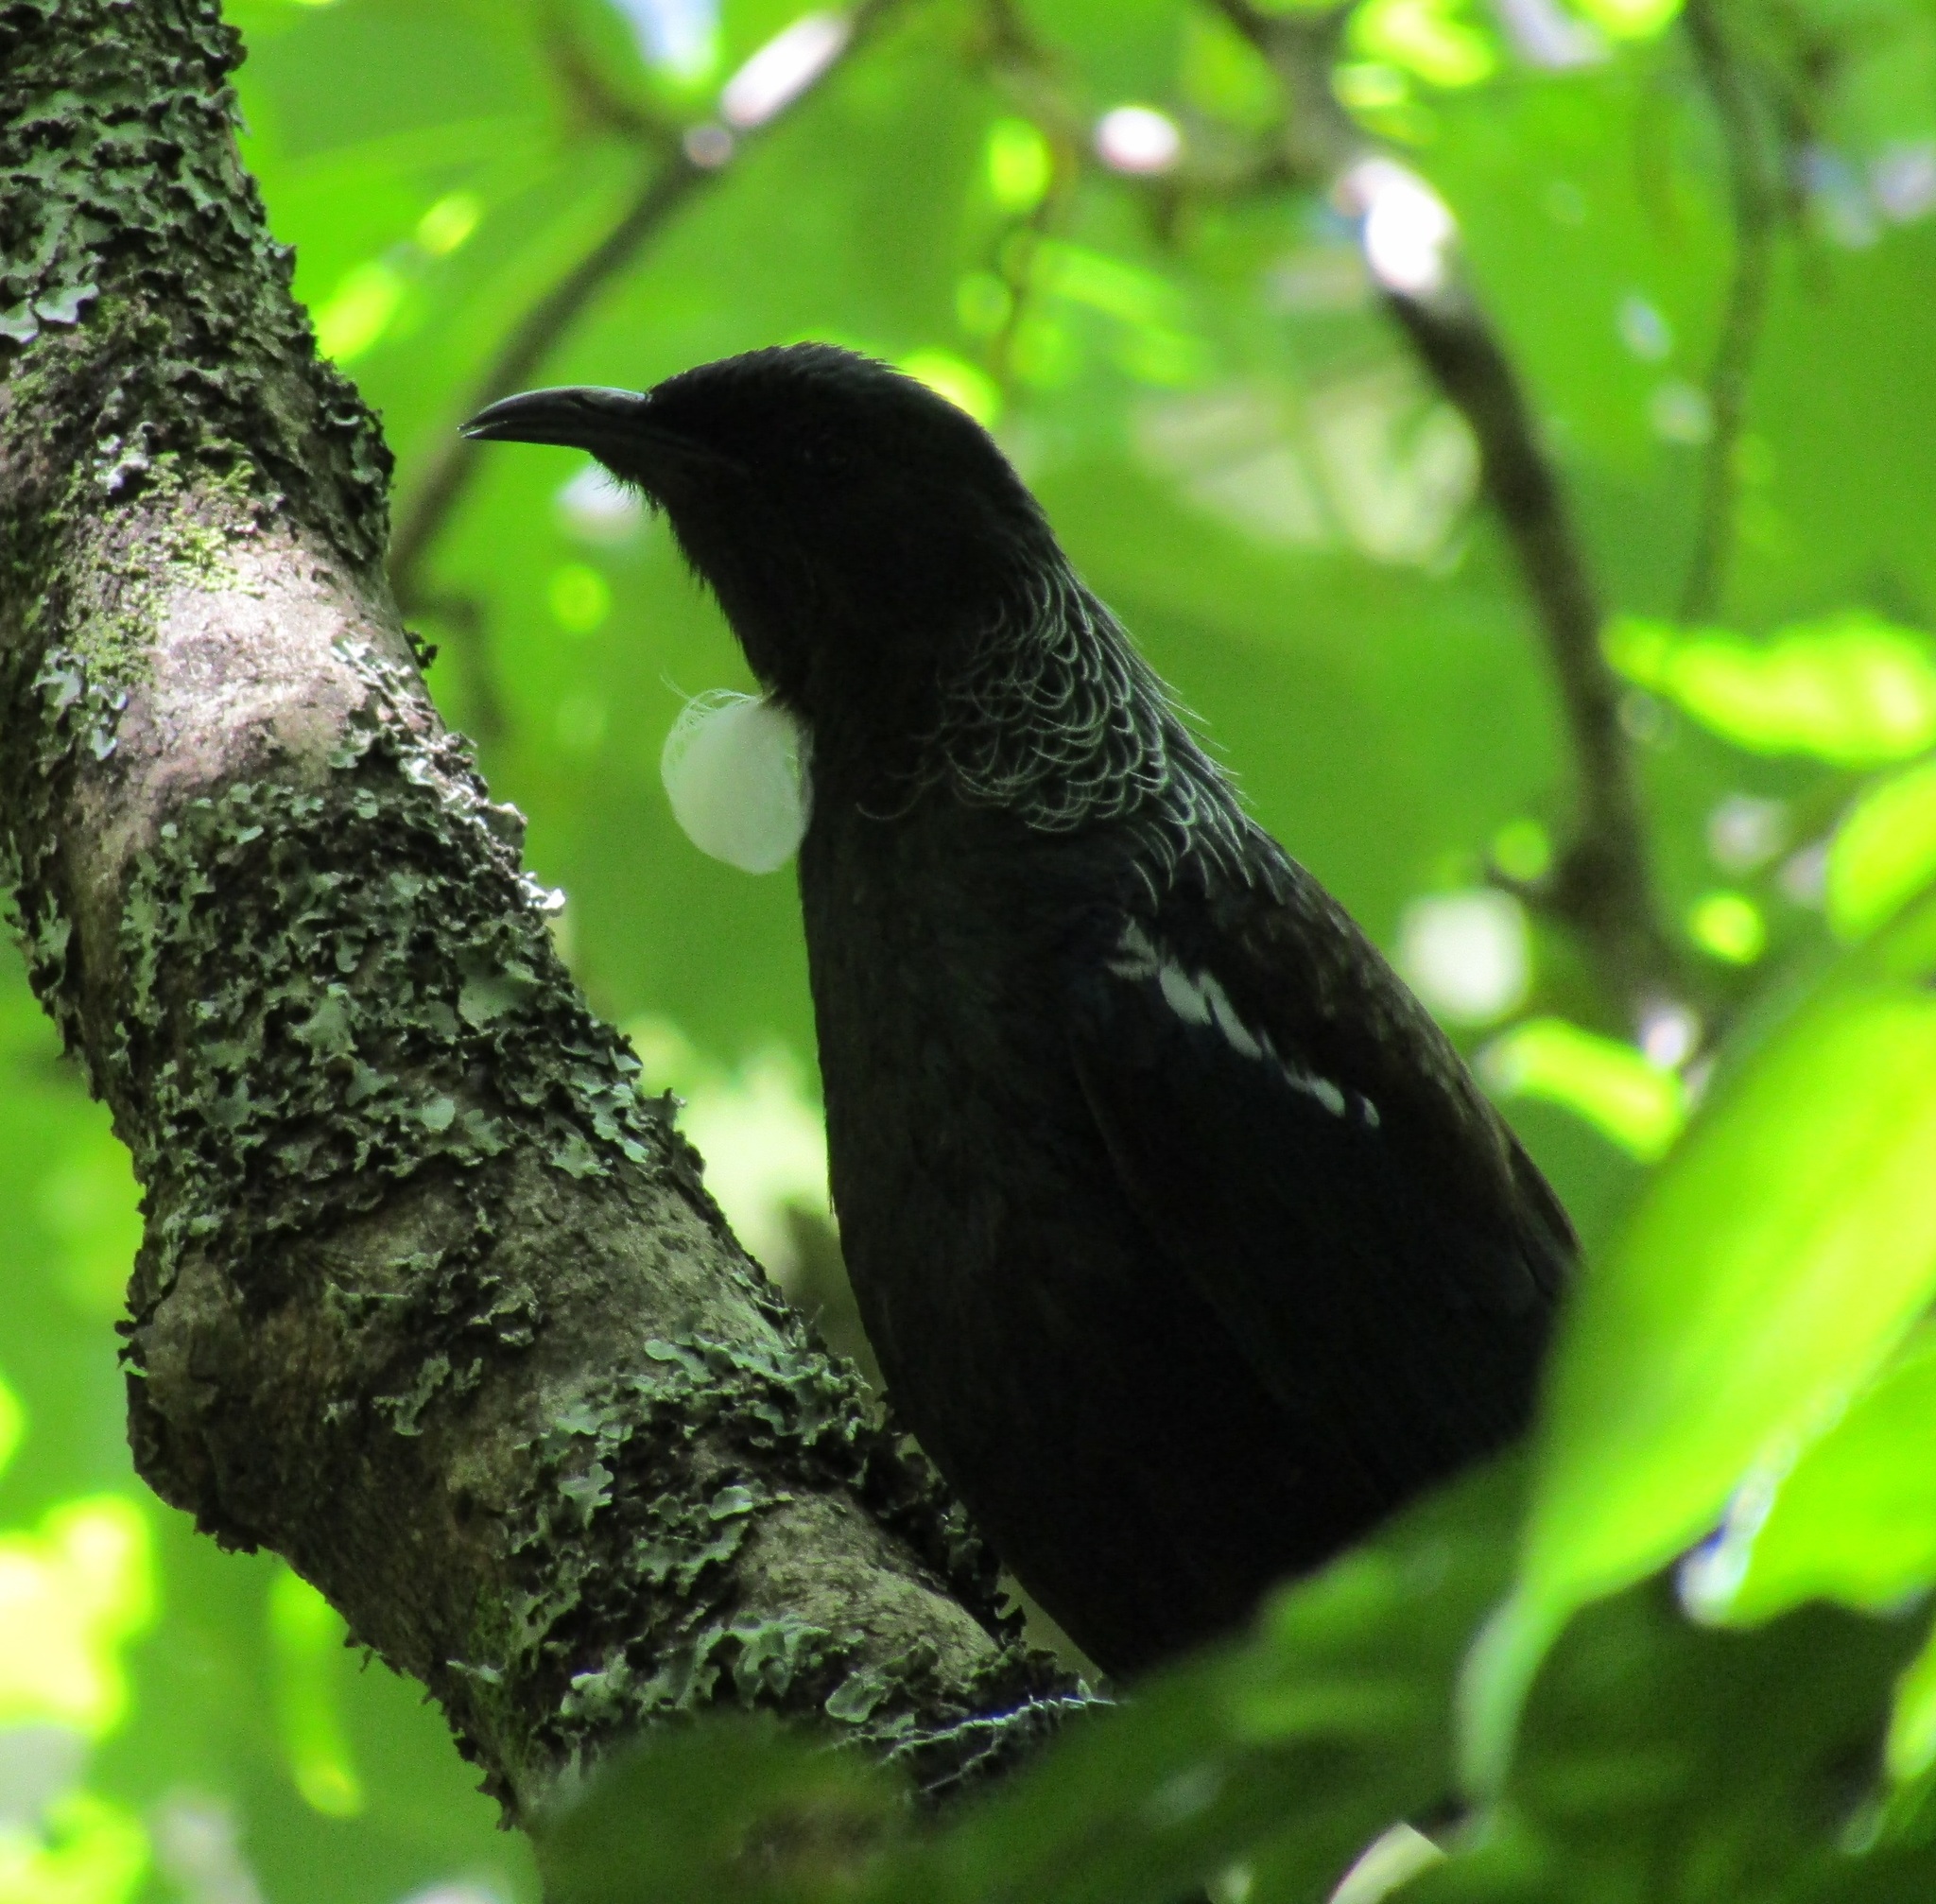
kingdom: Animalia
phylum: Chordata
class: Aves
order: Passeriformes
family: Meliphagidae
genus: Prosthemadera
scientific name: Prosthemadera novaeseelandiae
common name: Tui
